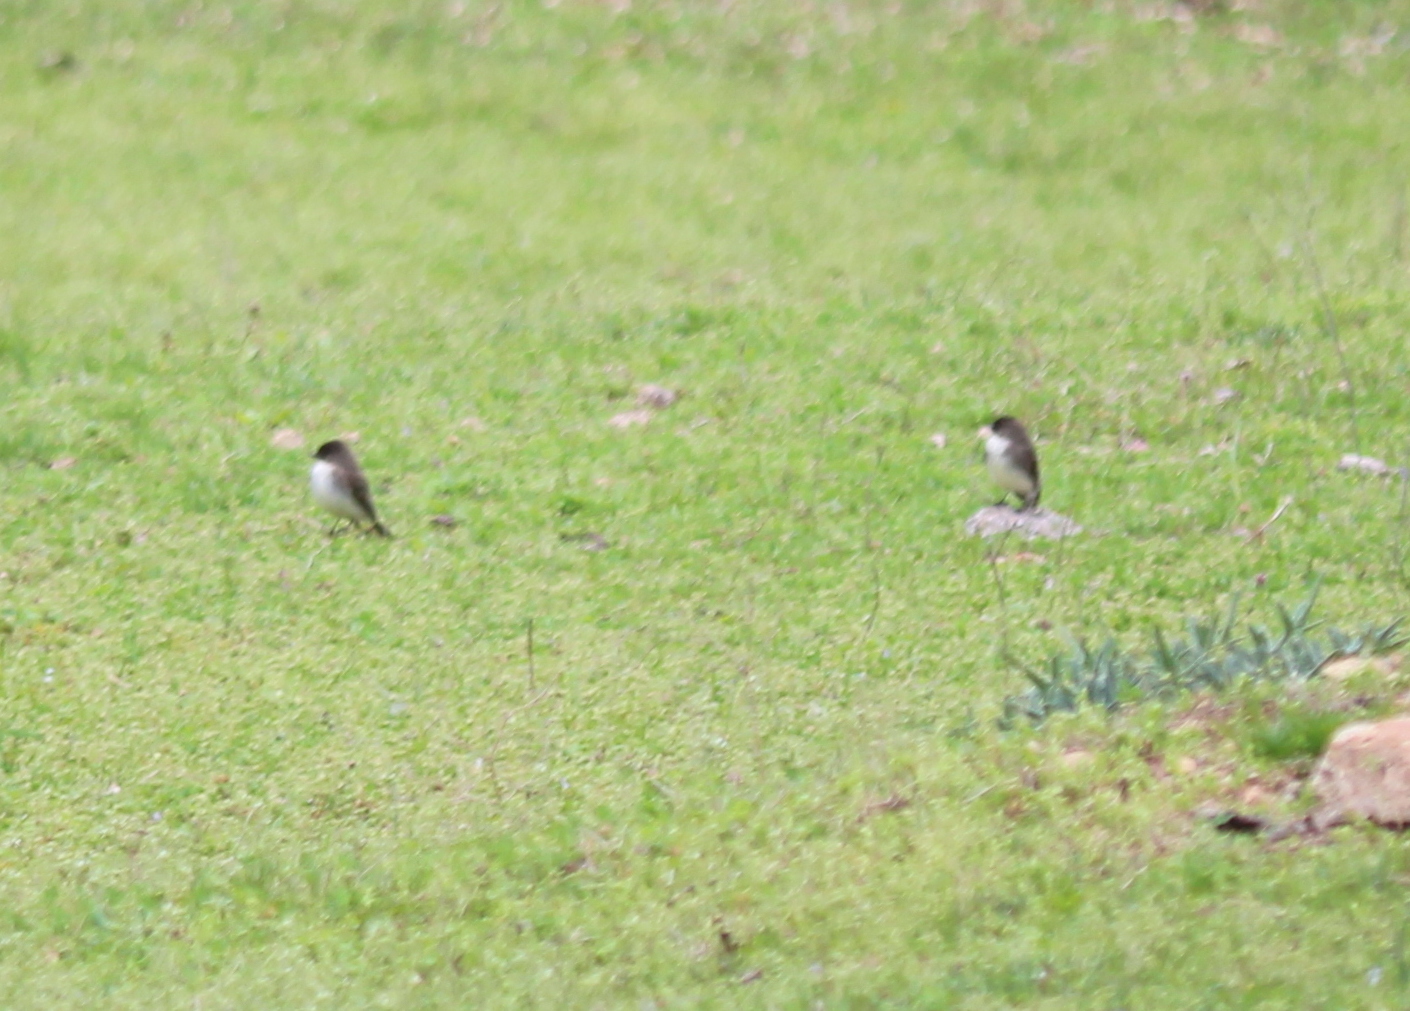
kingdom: Animalia
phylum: Chordata
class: Aves
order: Passeriformes
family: Tyrannidae
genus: Sayornis
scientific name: Sayornis phoebe
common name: Eastern phoebe
